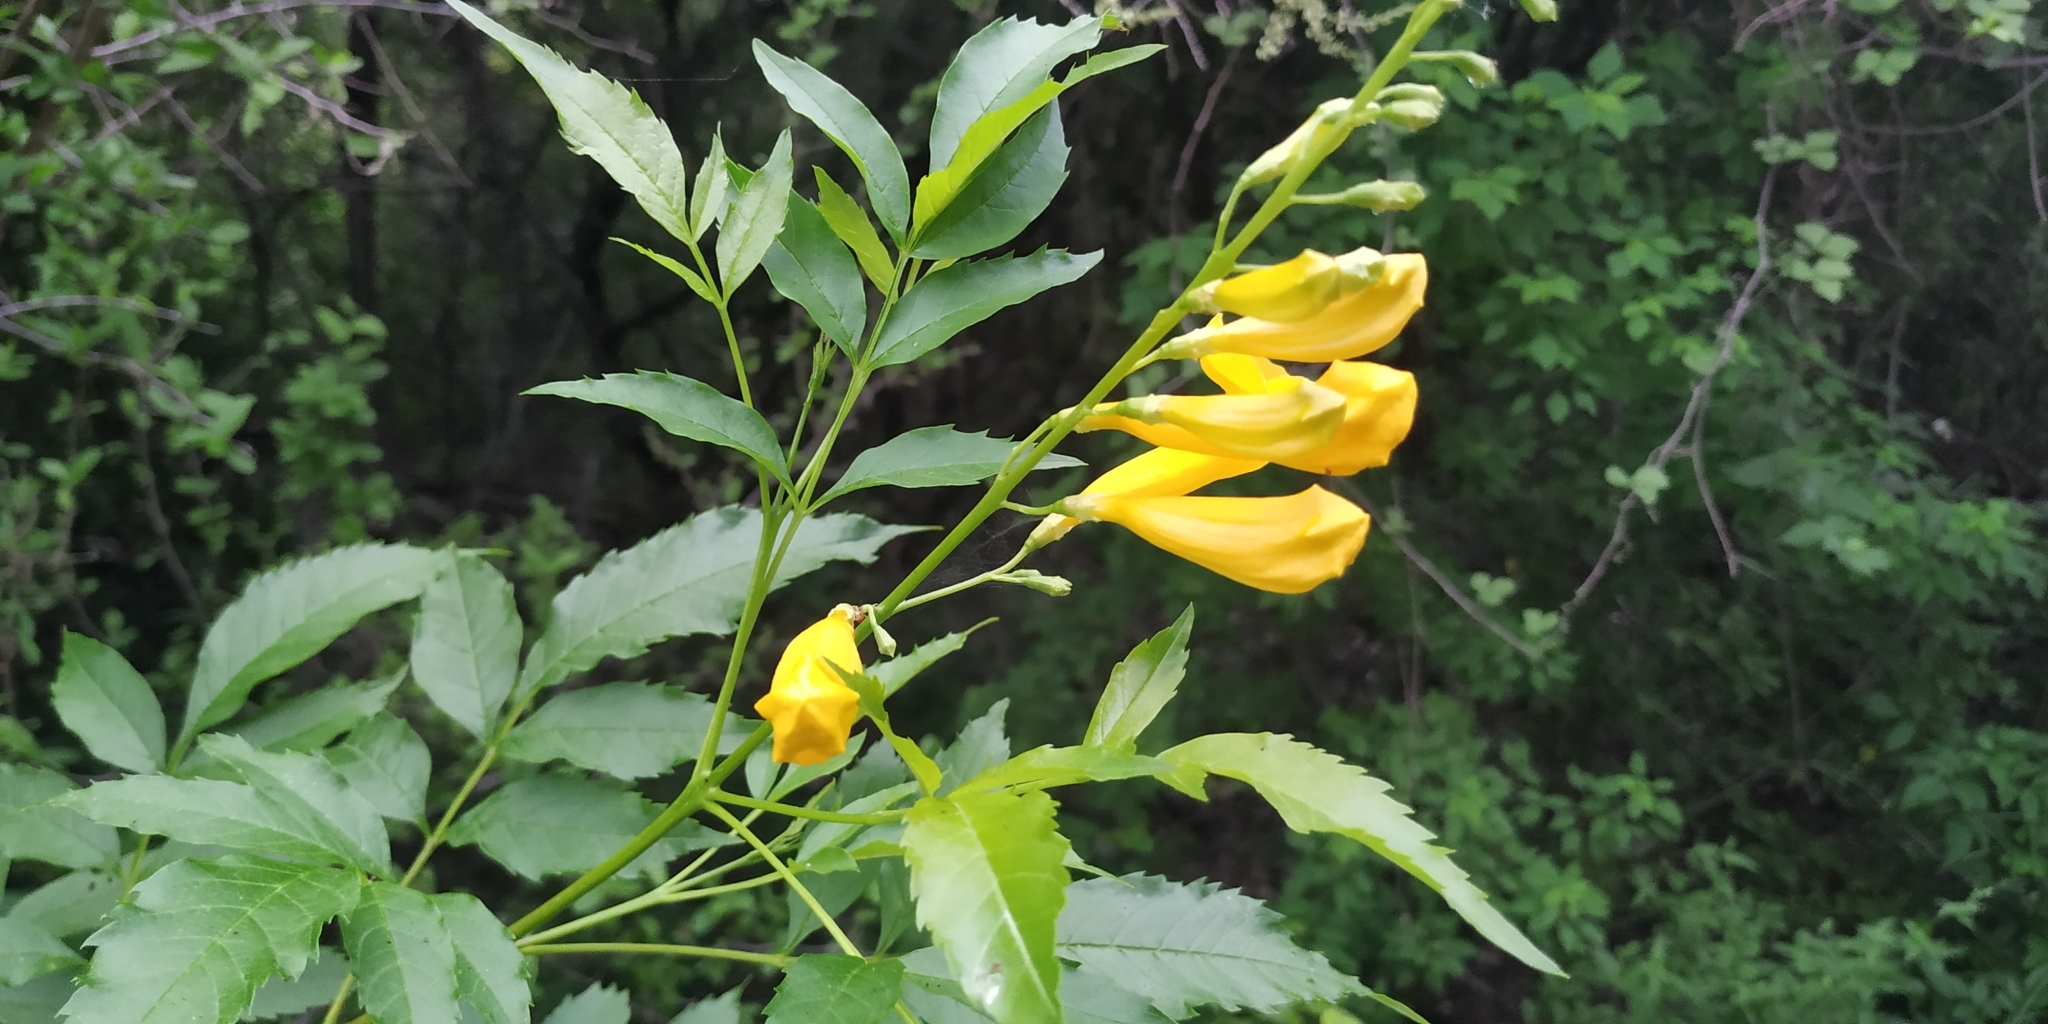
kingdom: Plantae
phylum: Tracheophyta
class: Magnoliopsida
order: Lamiales
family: Bignoniaceae
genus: Tecoma
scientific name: Tecoma stans
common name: Yellow trumpetbush
